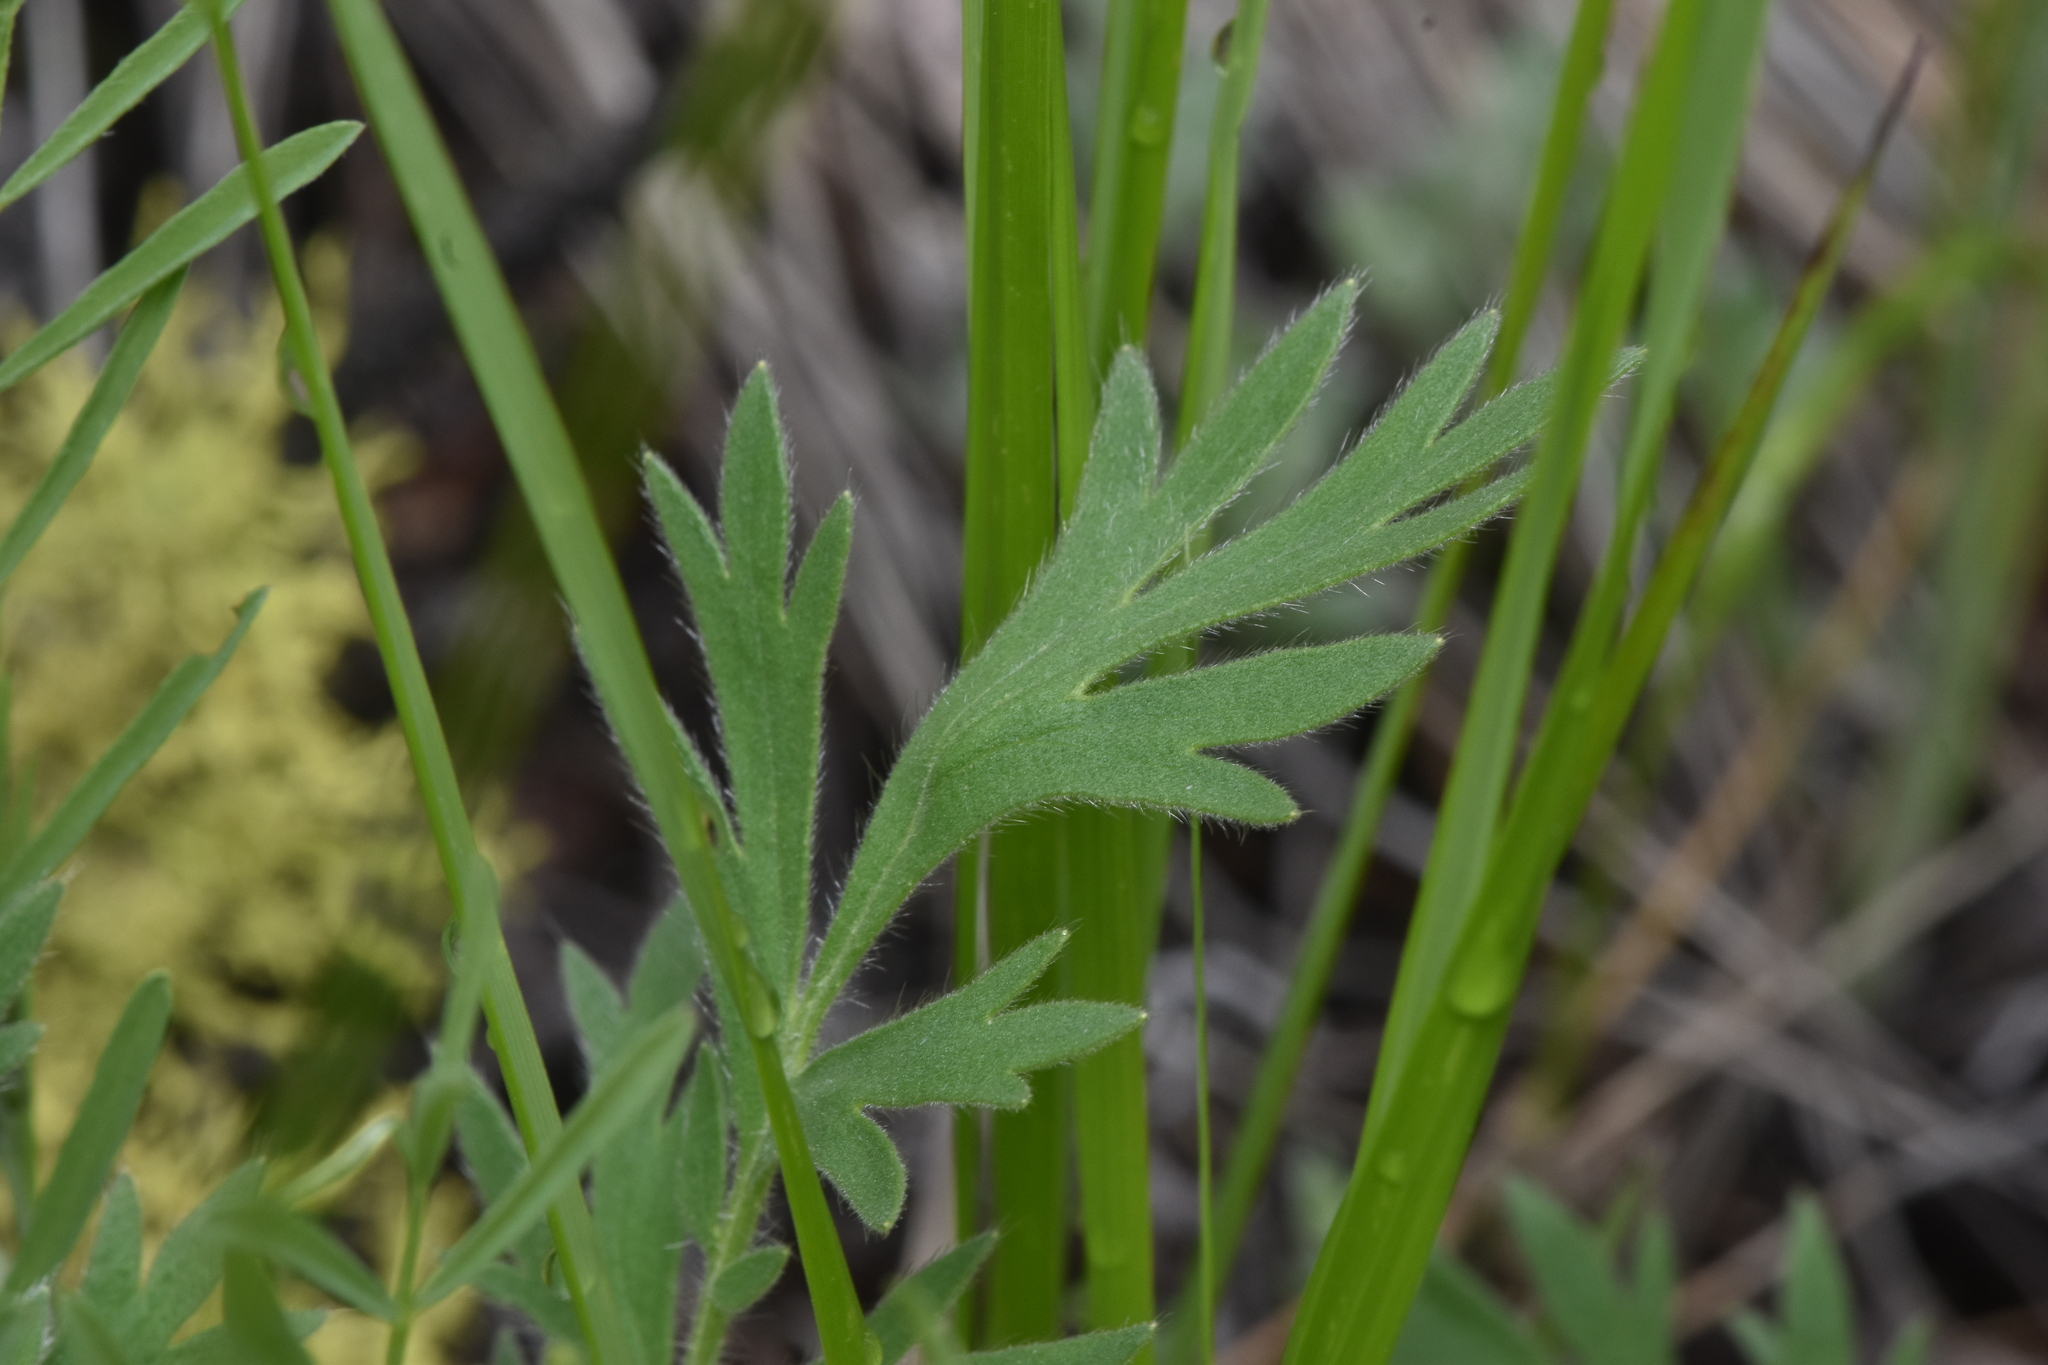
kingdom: Plantae
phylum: Tracheophyta
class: Magnoliopsida
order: Rosales
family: Rosaceae
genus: Geum
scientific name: Geum triflorum
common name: Old man's whiskers
